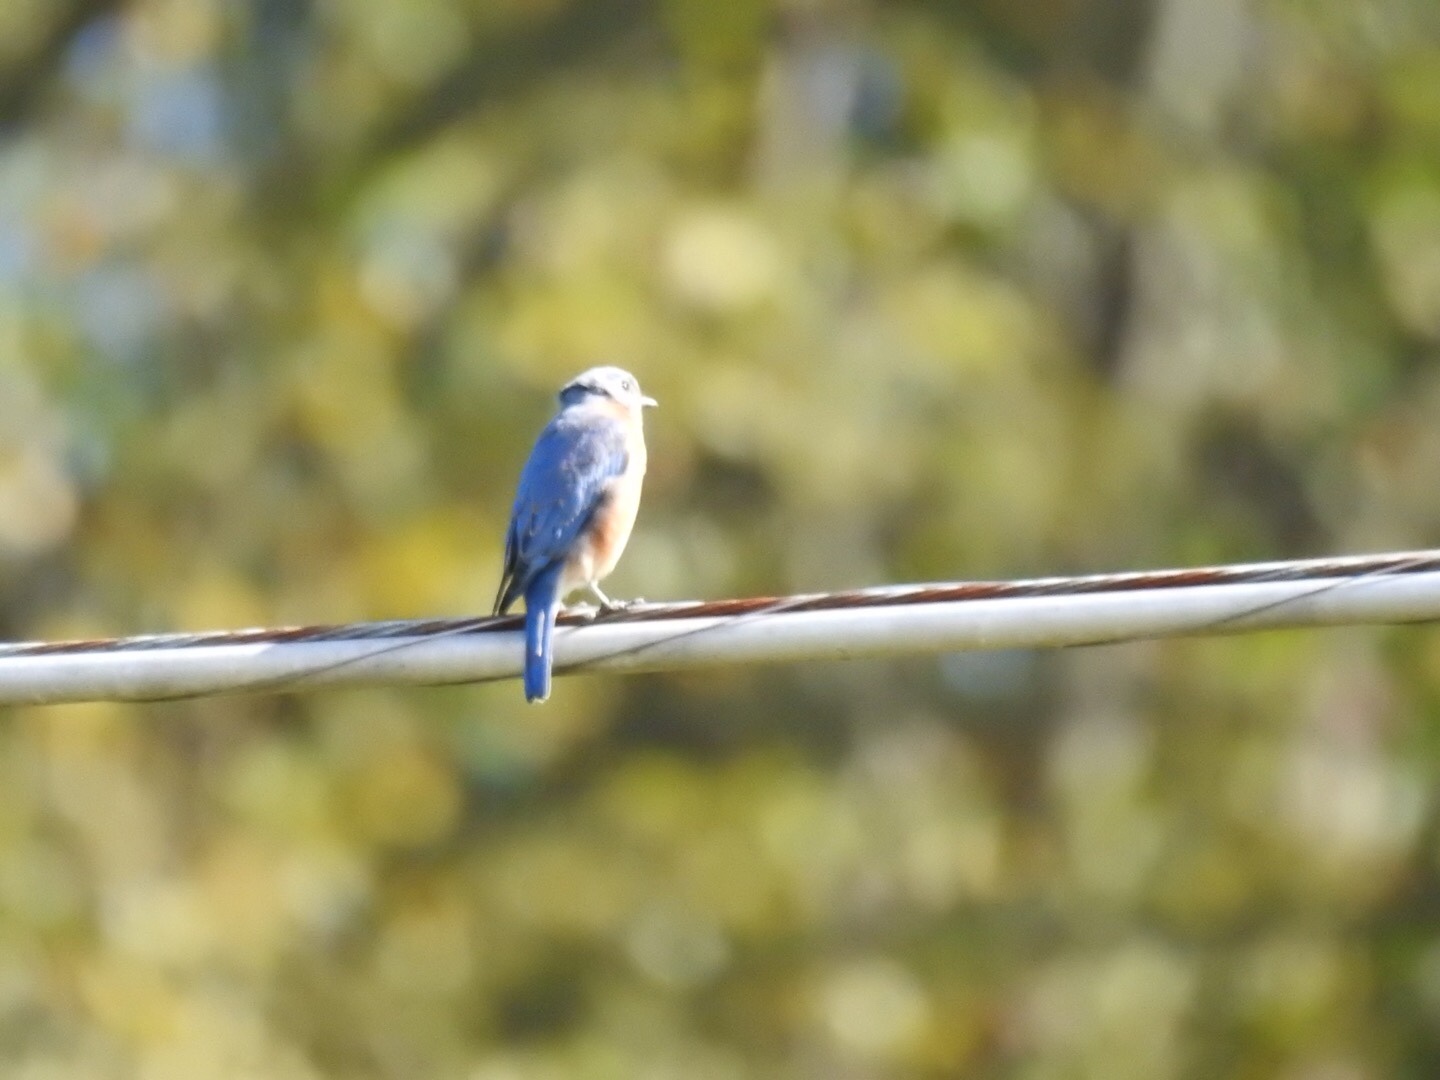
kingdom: Animalia
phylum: Chordata
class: Aves
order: Passeriformes
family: Turdidae
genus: Sialia
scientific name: Sialia sialis
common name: Eastern bluebird
